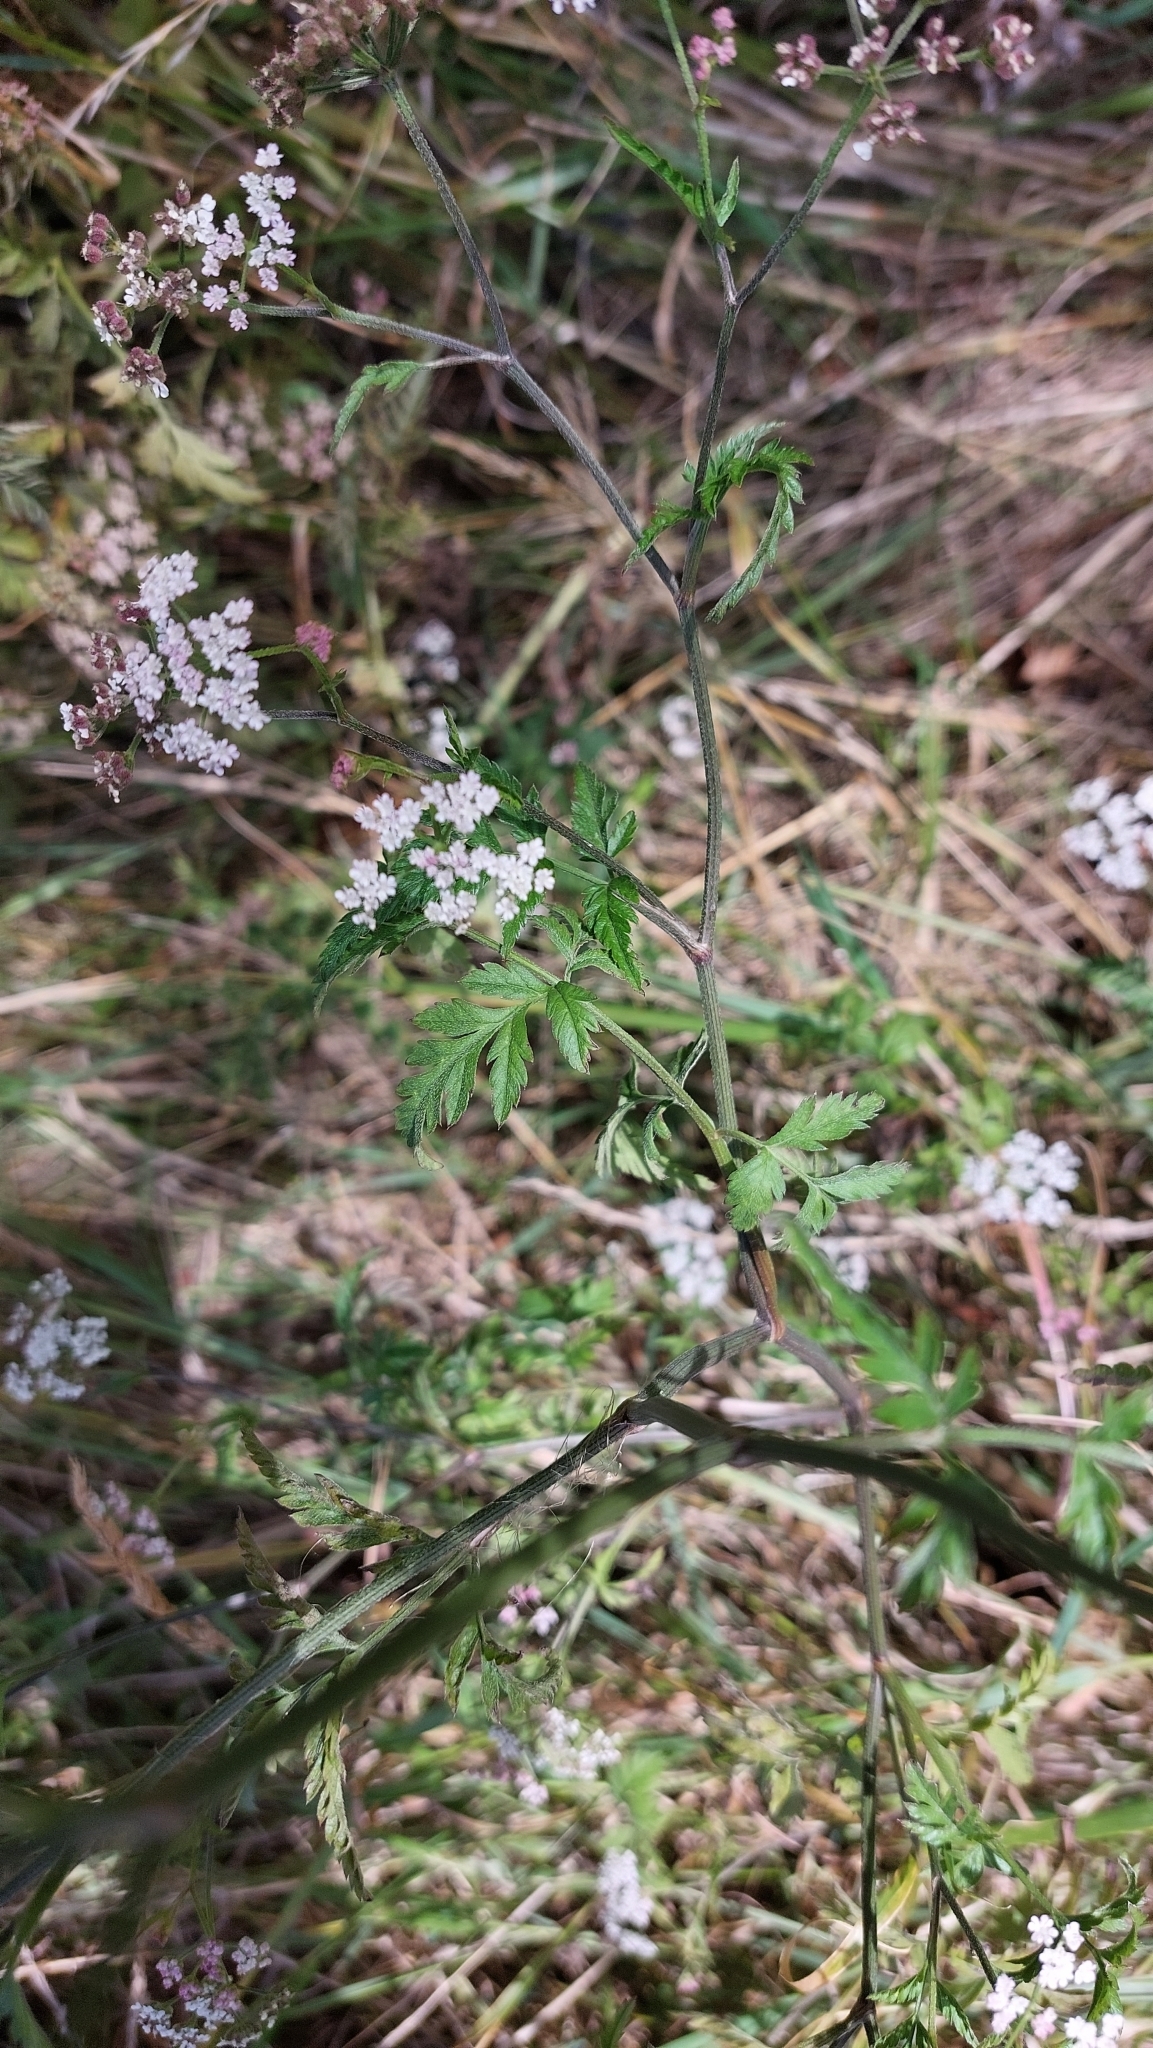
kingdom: Plantae
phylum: Tracheophyta
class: Magnoliopsida
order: Apiales
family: Apiaceae
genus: Torilis
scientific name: Torilis japonica
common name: Upright hedge-parsley
